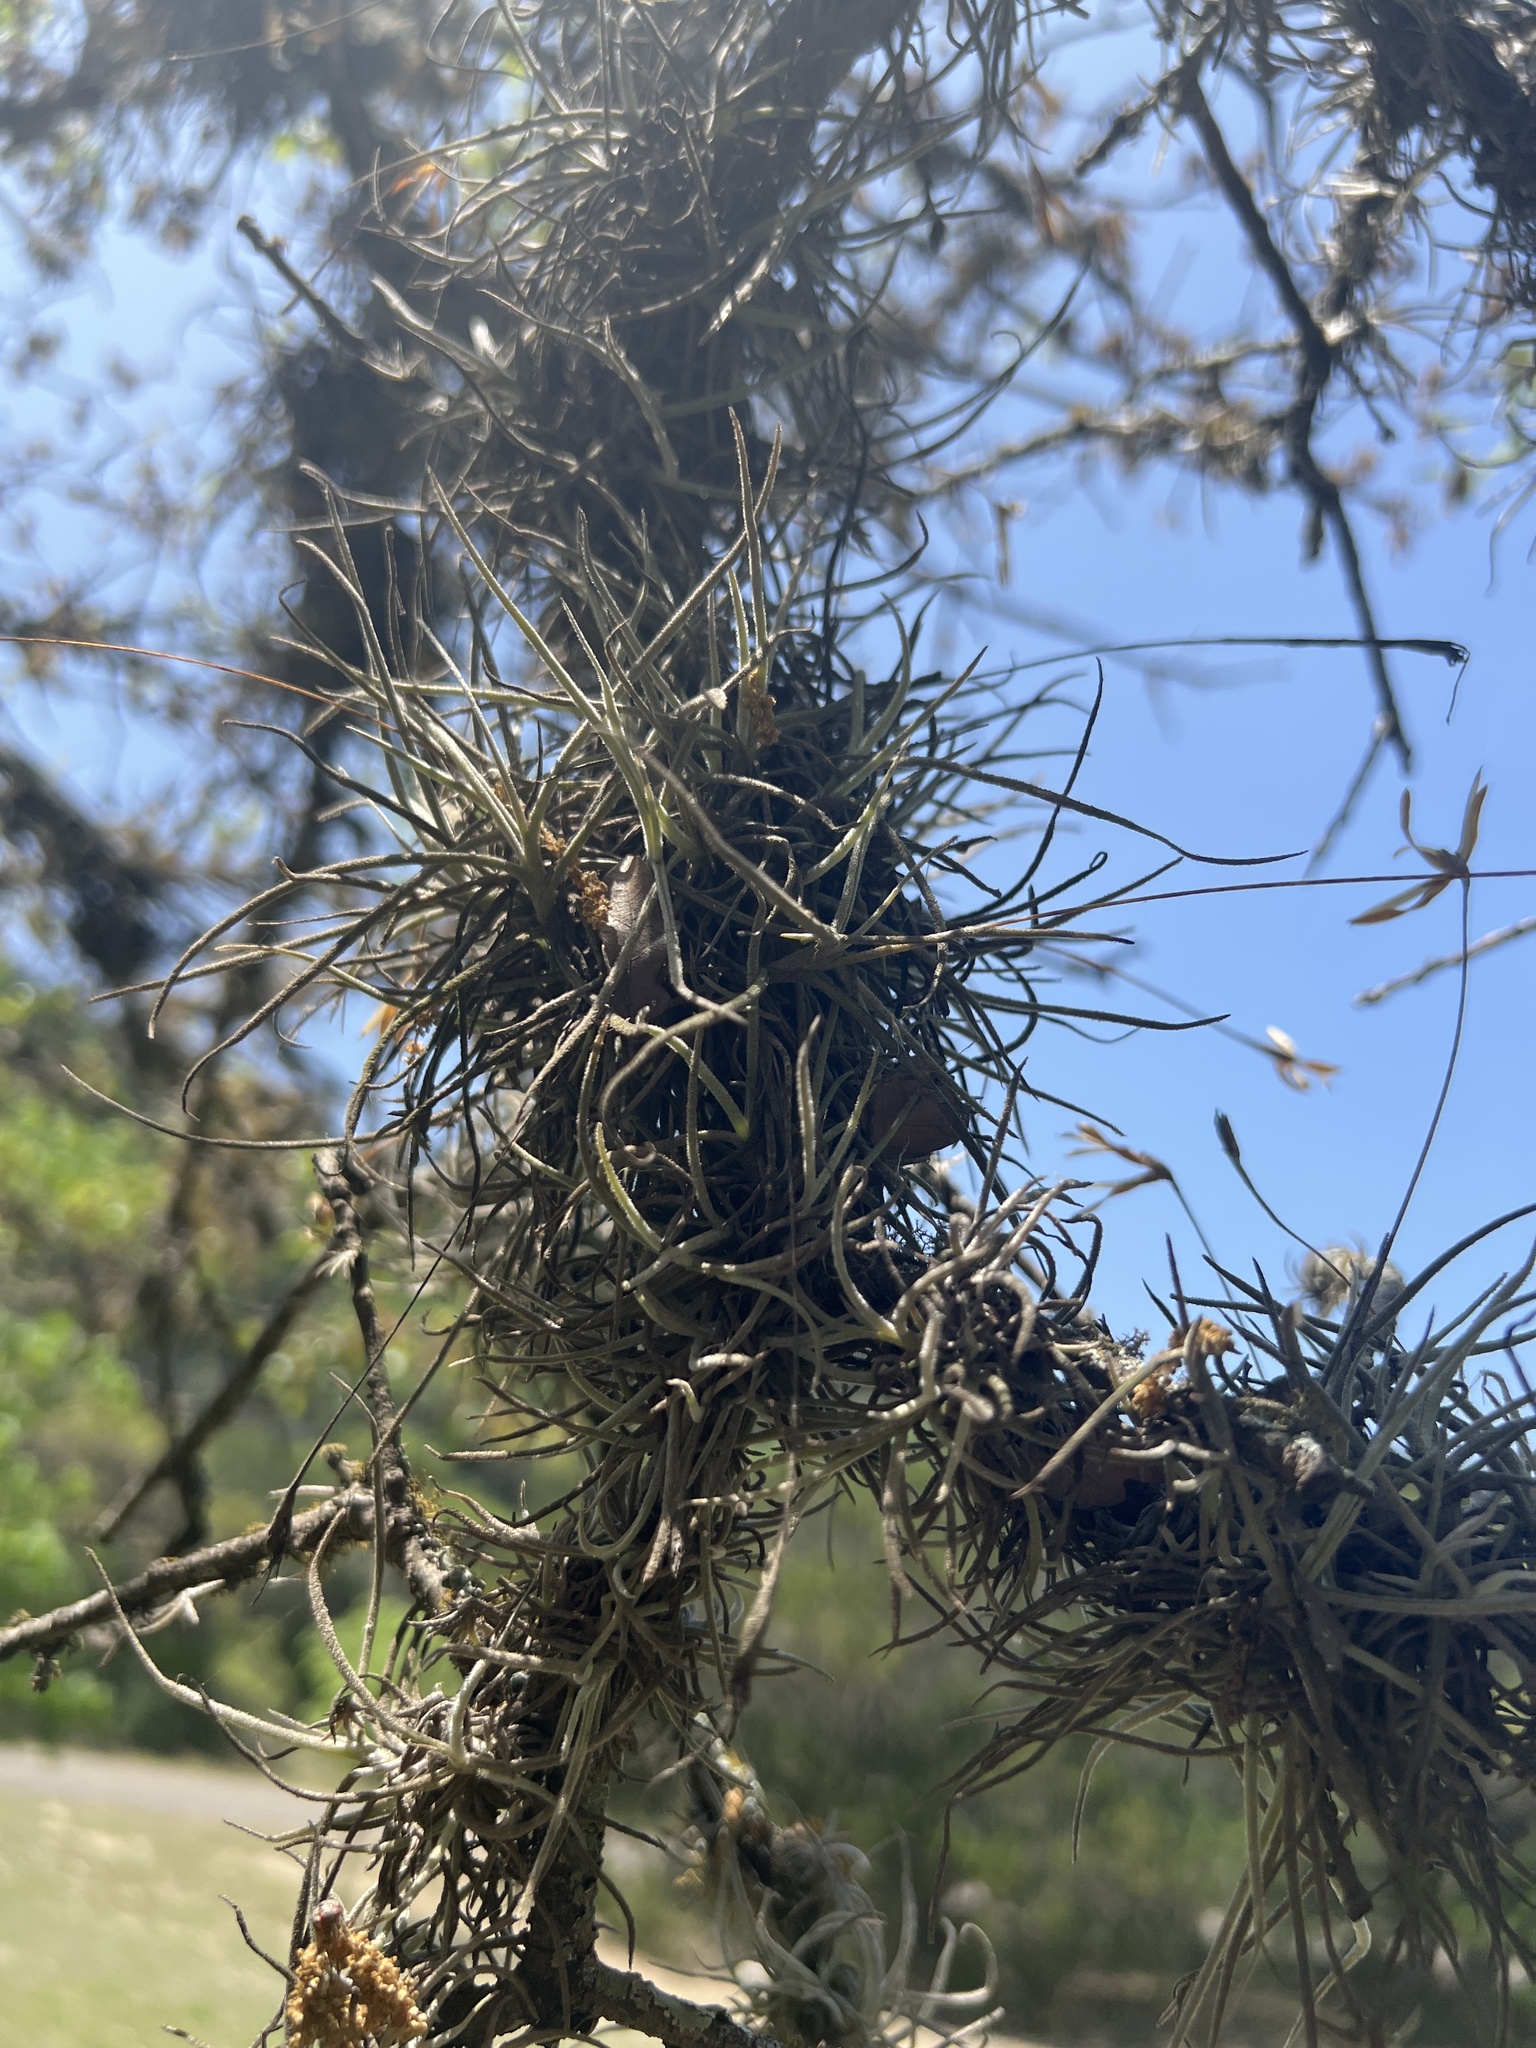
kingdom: Plantae
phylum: Tracheophyta
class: Liliopsida
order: Poales
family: Bromeliaceae
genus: Tillandsia
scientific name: Tillandsia recurvata
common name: Small ballmoss
